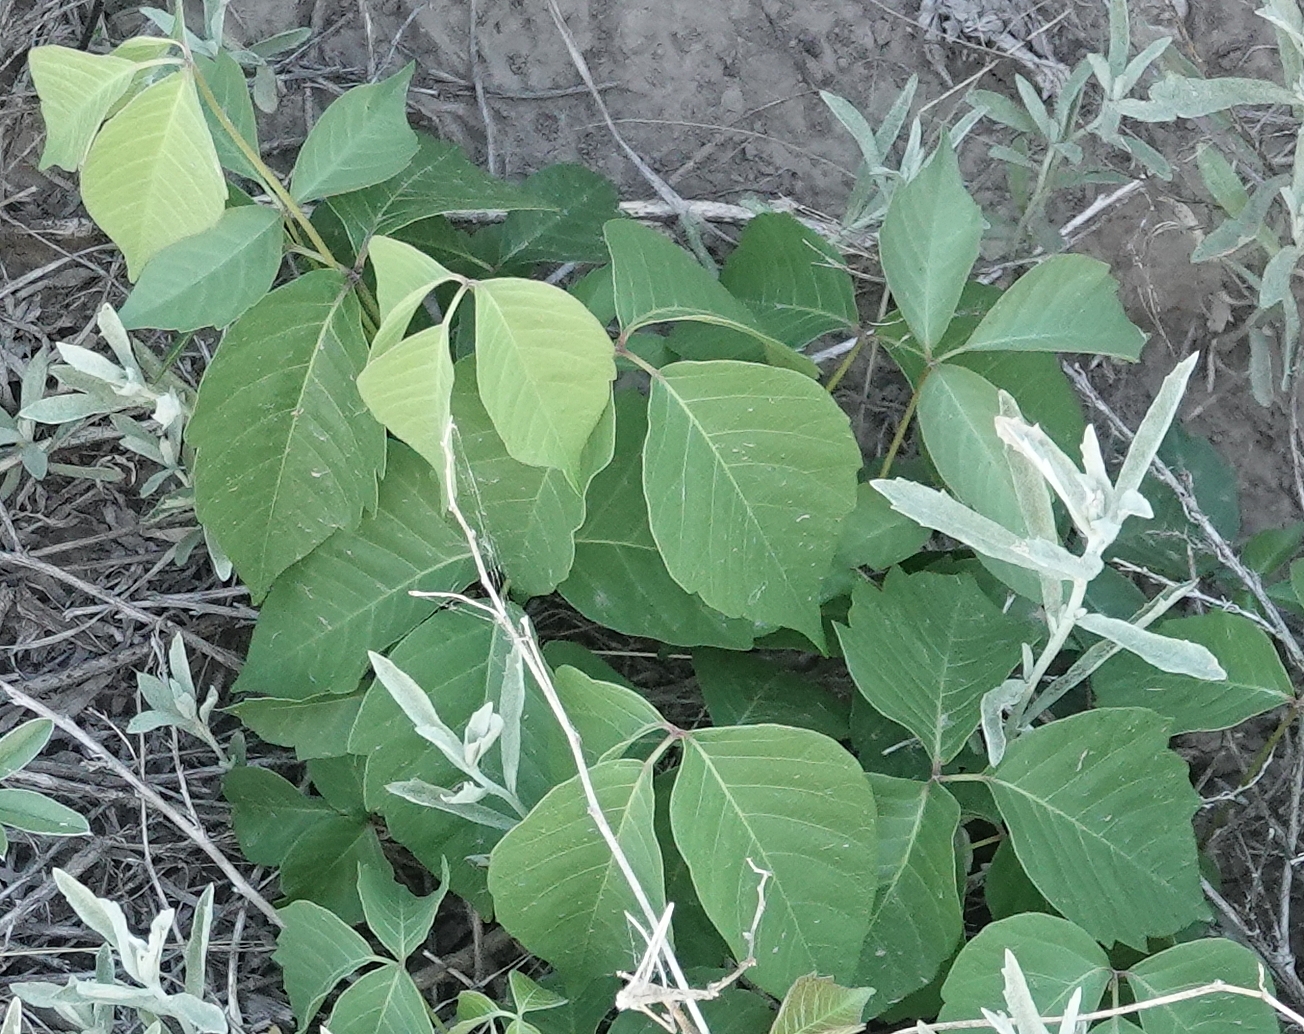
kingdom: Plantae
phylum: Tracheophyta
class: Magnoliopsida
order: Sapindales
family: Anacardiaceae
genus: Toxicodendron
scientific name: Toxicodendron rydbergii
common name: Rydberg's poison-ivy
